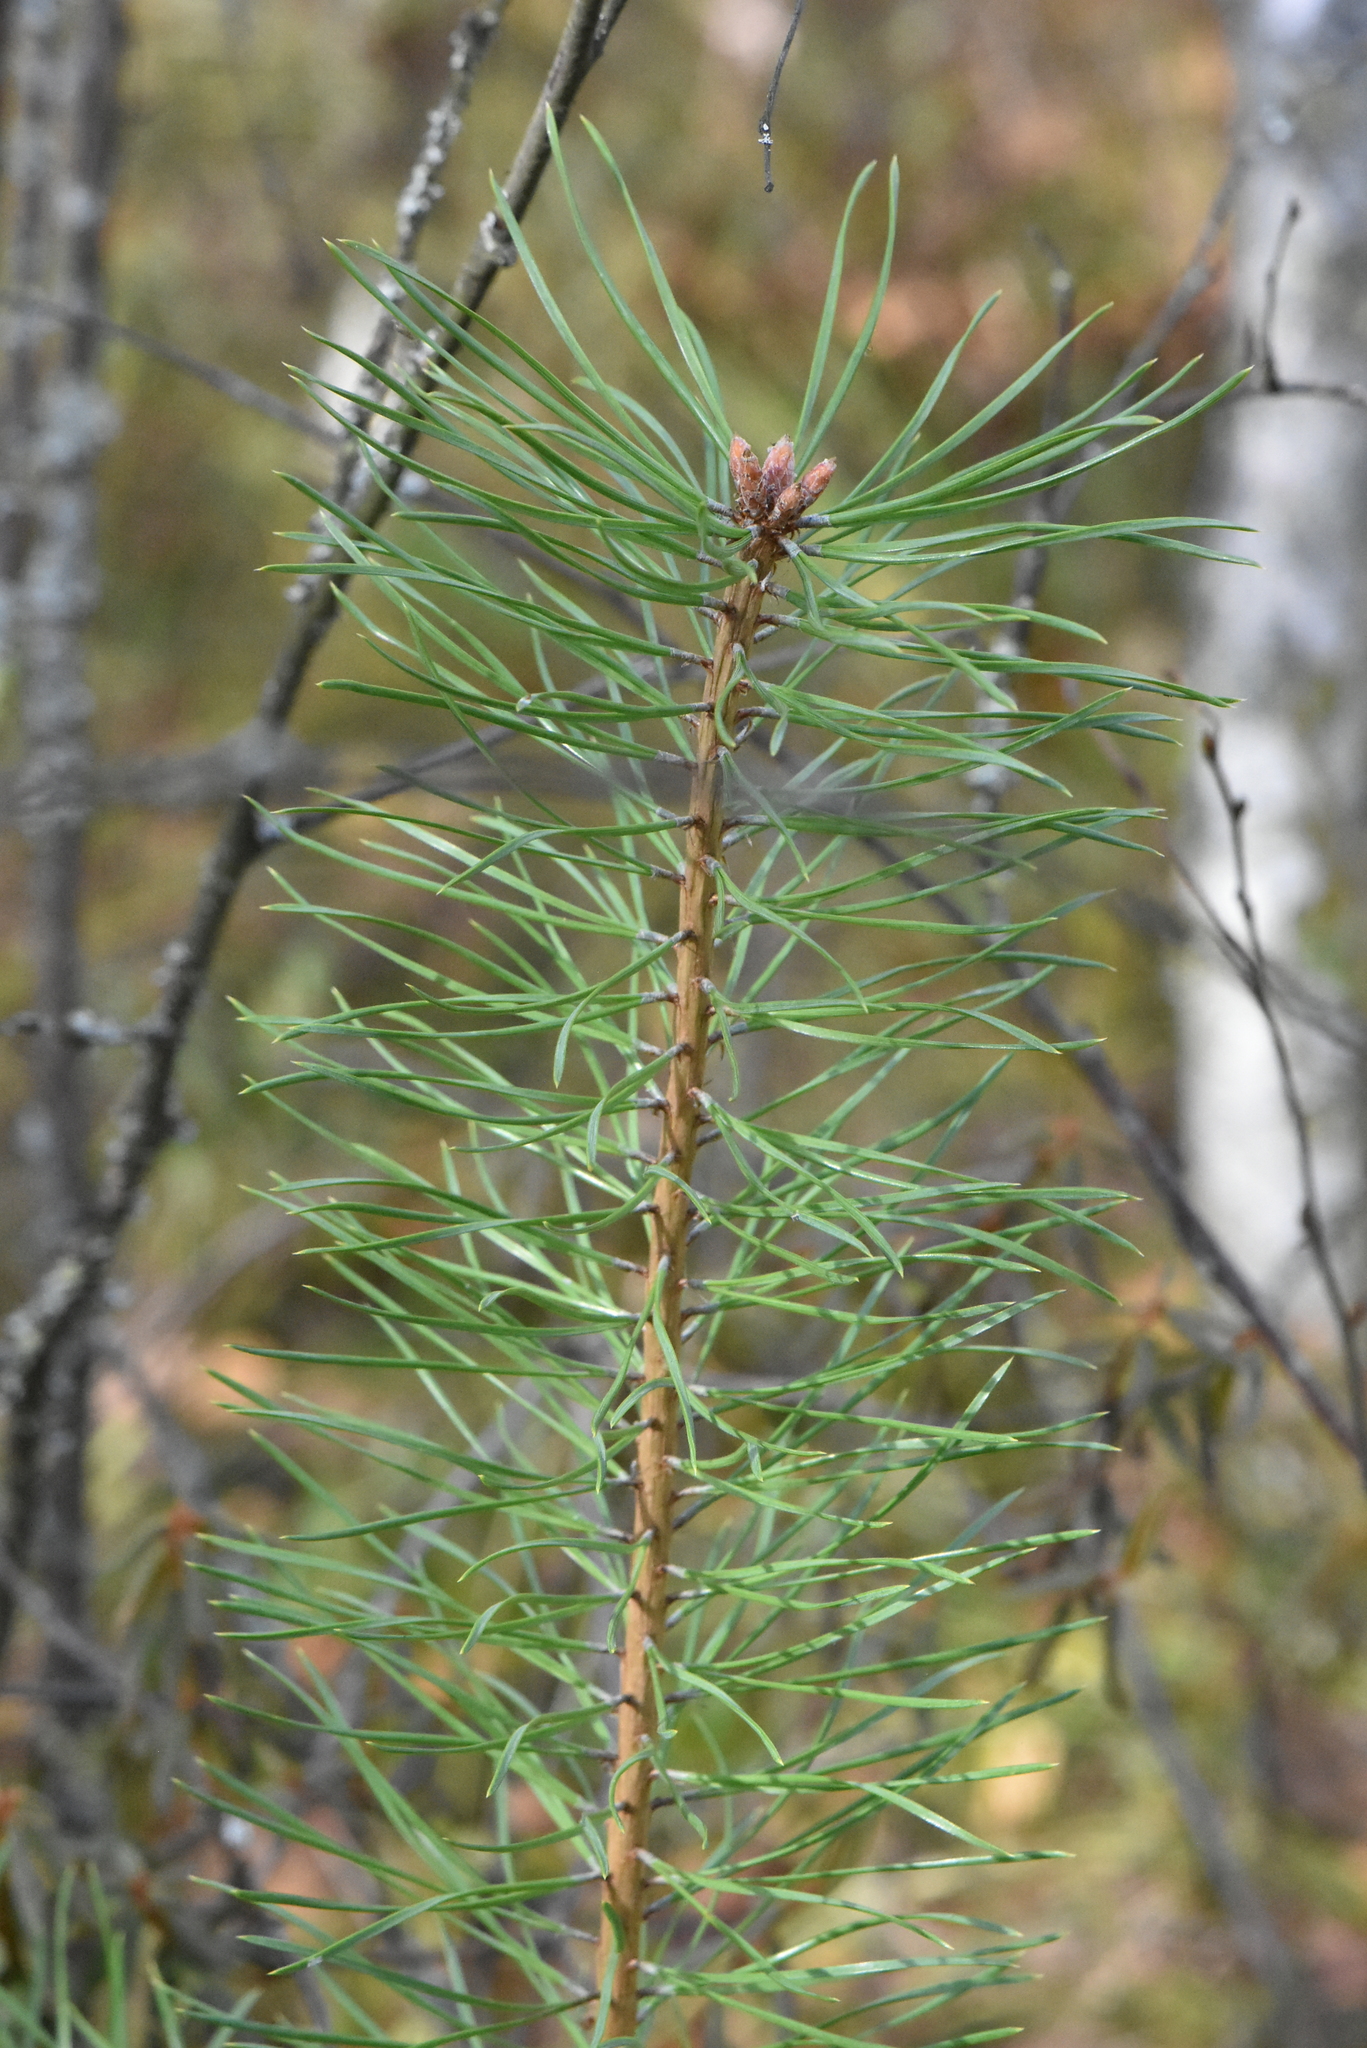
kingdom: Plantae
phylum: Tracheophyta
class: Pinopsida
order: Pinales
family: Pinaceae
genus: Pinus
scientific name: Pinus sylvestris
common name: Scots pine
